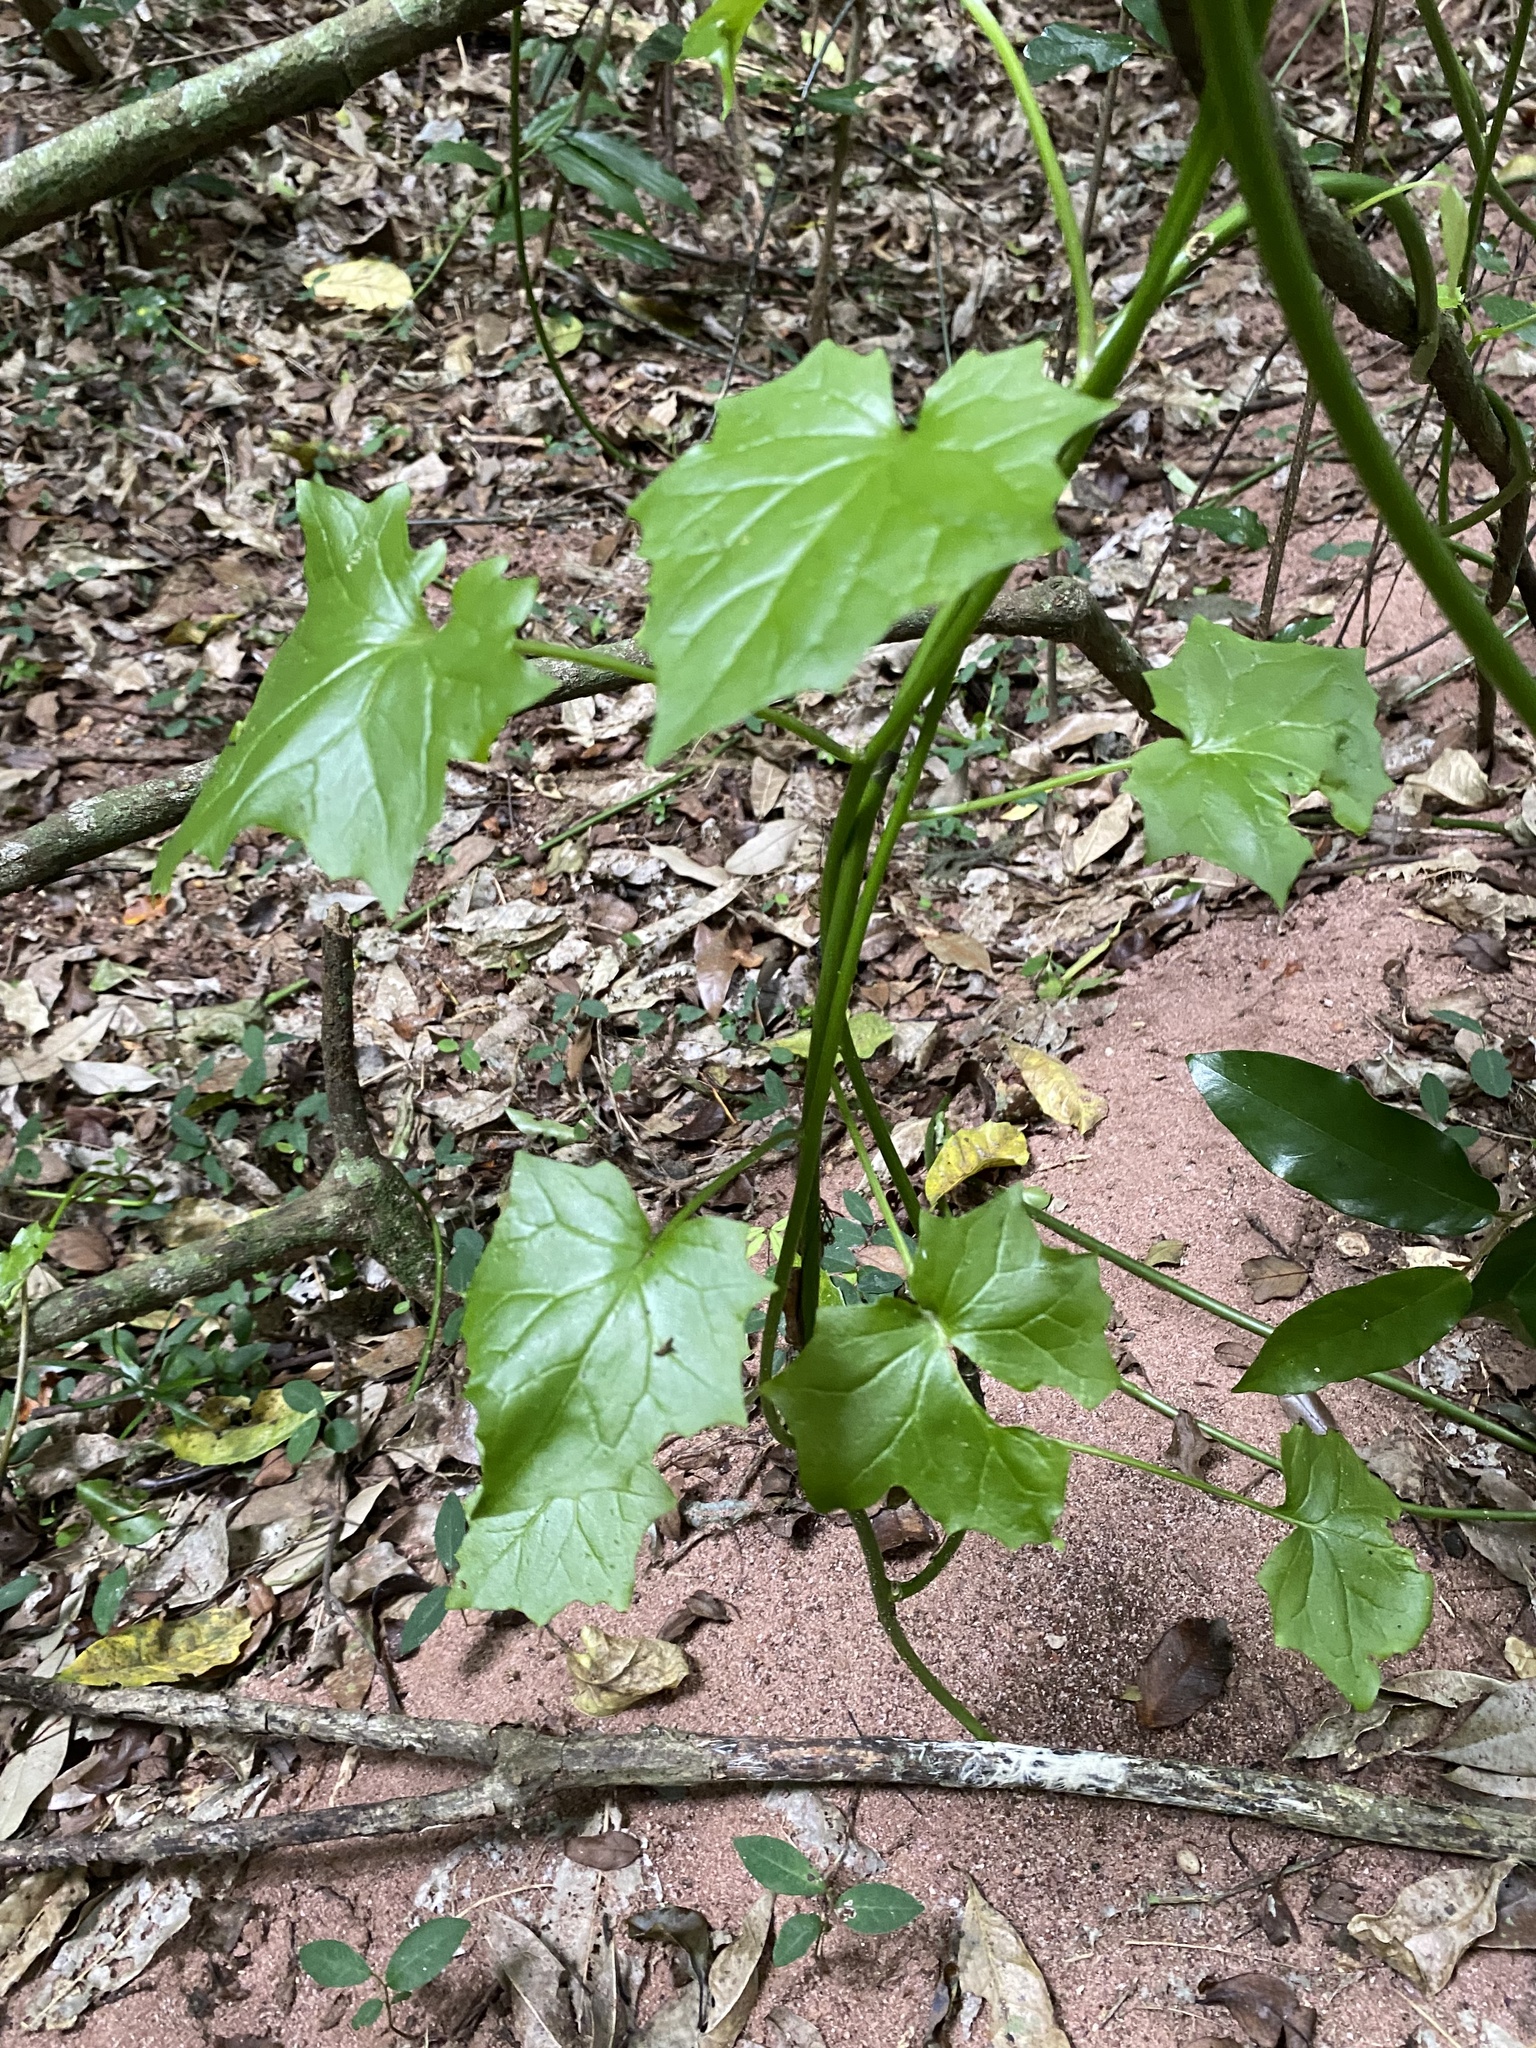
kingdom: Plantae
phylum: Tracheophyta
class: Magnoliopsida
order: Asterales
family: Asteraceae
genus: Senecio
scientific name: Senecio tamoides
